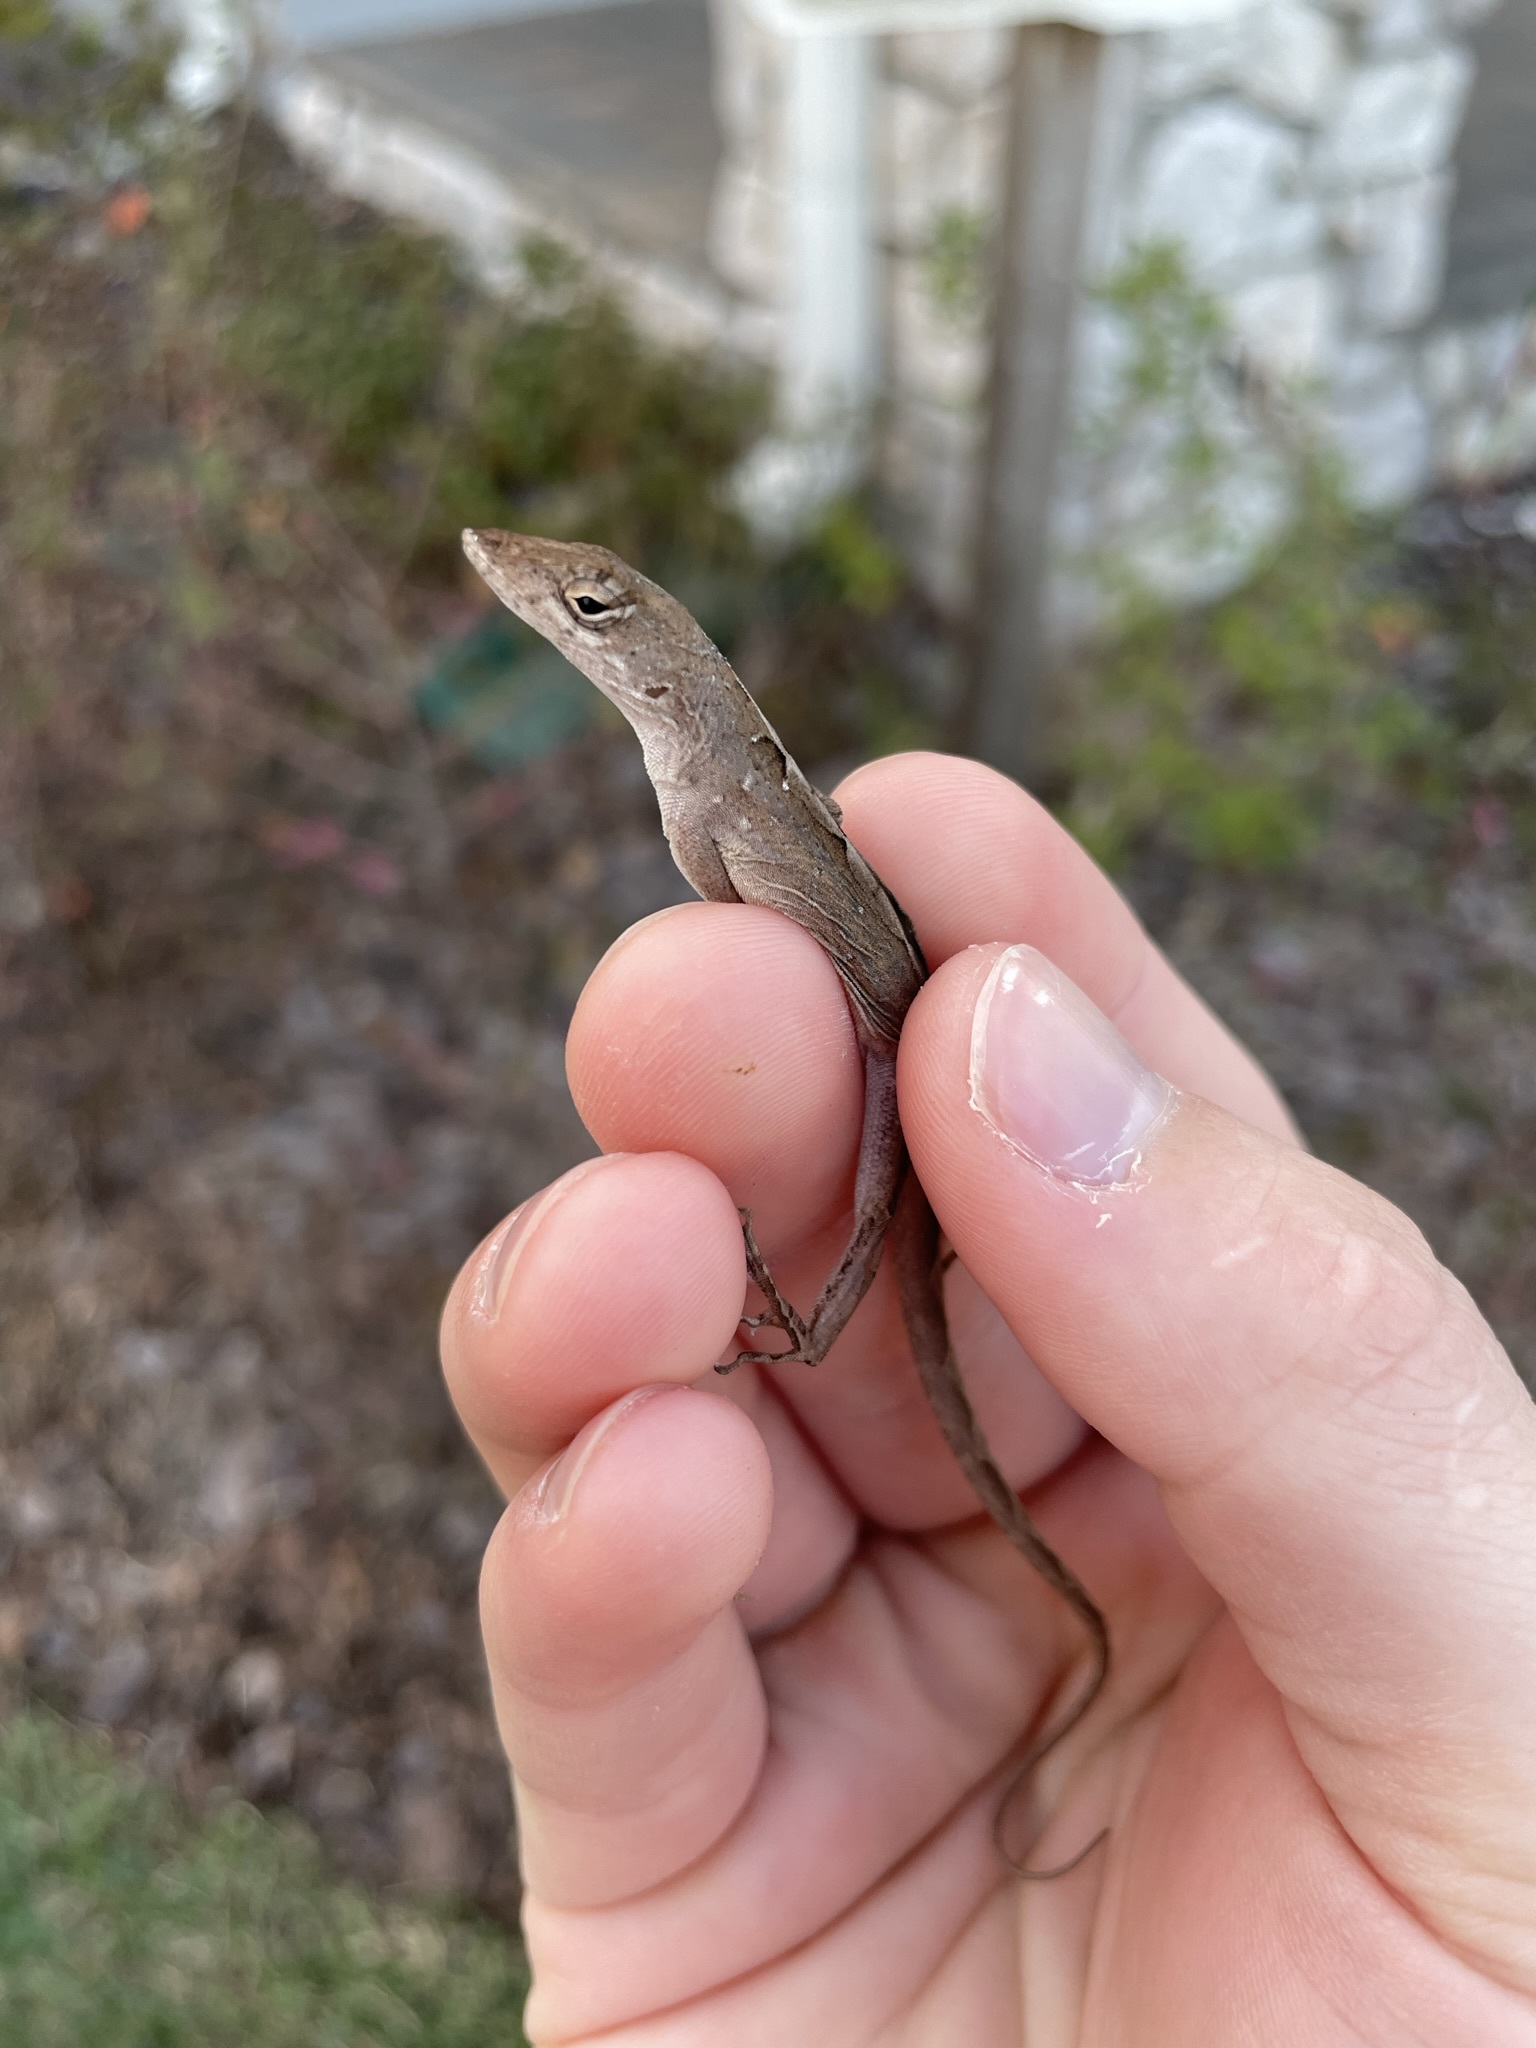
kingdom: Animalia
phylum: Chordata
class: Squamata
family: Dactyloidae
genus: Anolis
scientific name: Anolis sagrei
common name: Brown anole
